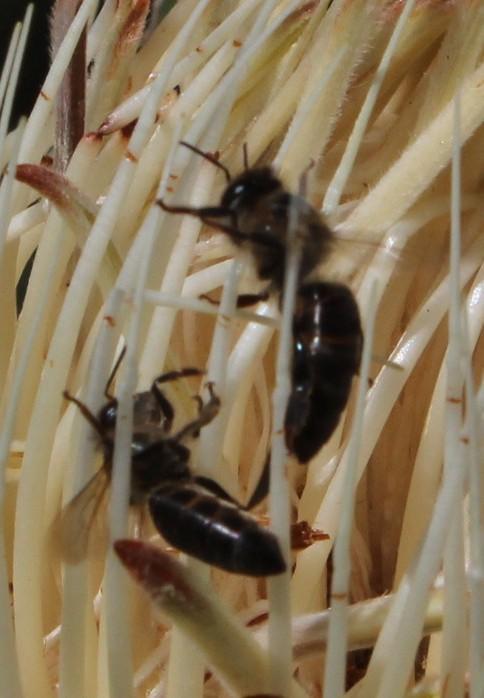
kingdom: Animalia
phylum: Arthropoda
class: Insecta
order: Hymenoptera
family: Apidae
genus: Apis
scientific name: Apis mellifera
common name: Honey bee
